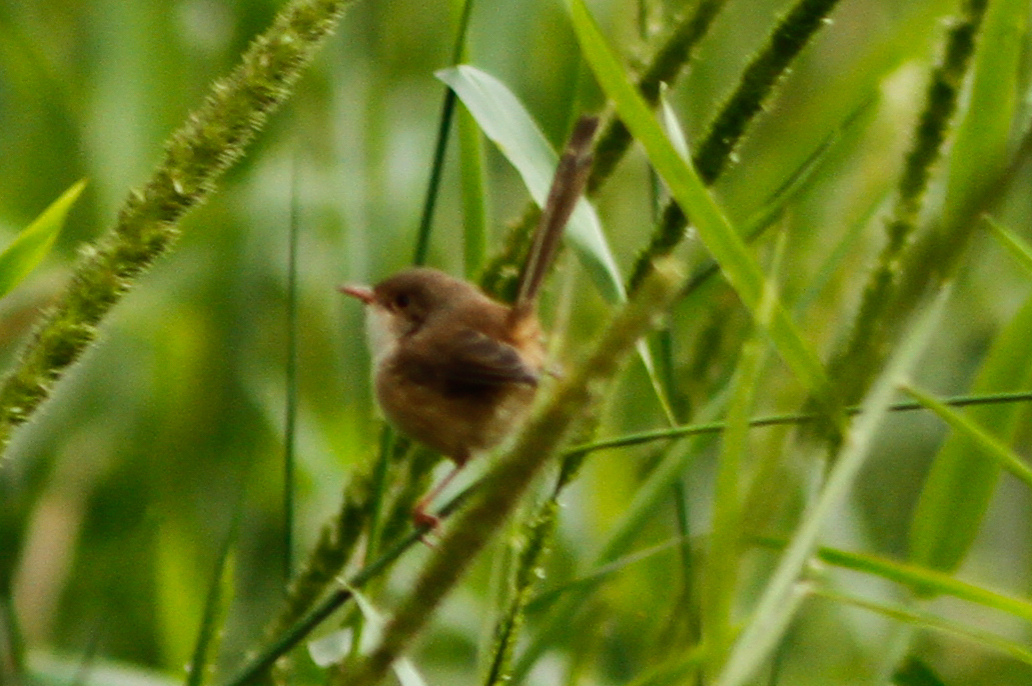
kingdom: Animalia
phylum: Chordata
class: Aves
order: Passeriformes
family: Maluridae
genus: Malurus
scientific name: Malurus melanocephalus
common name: Red-backed fairywren
